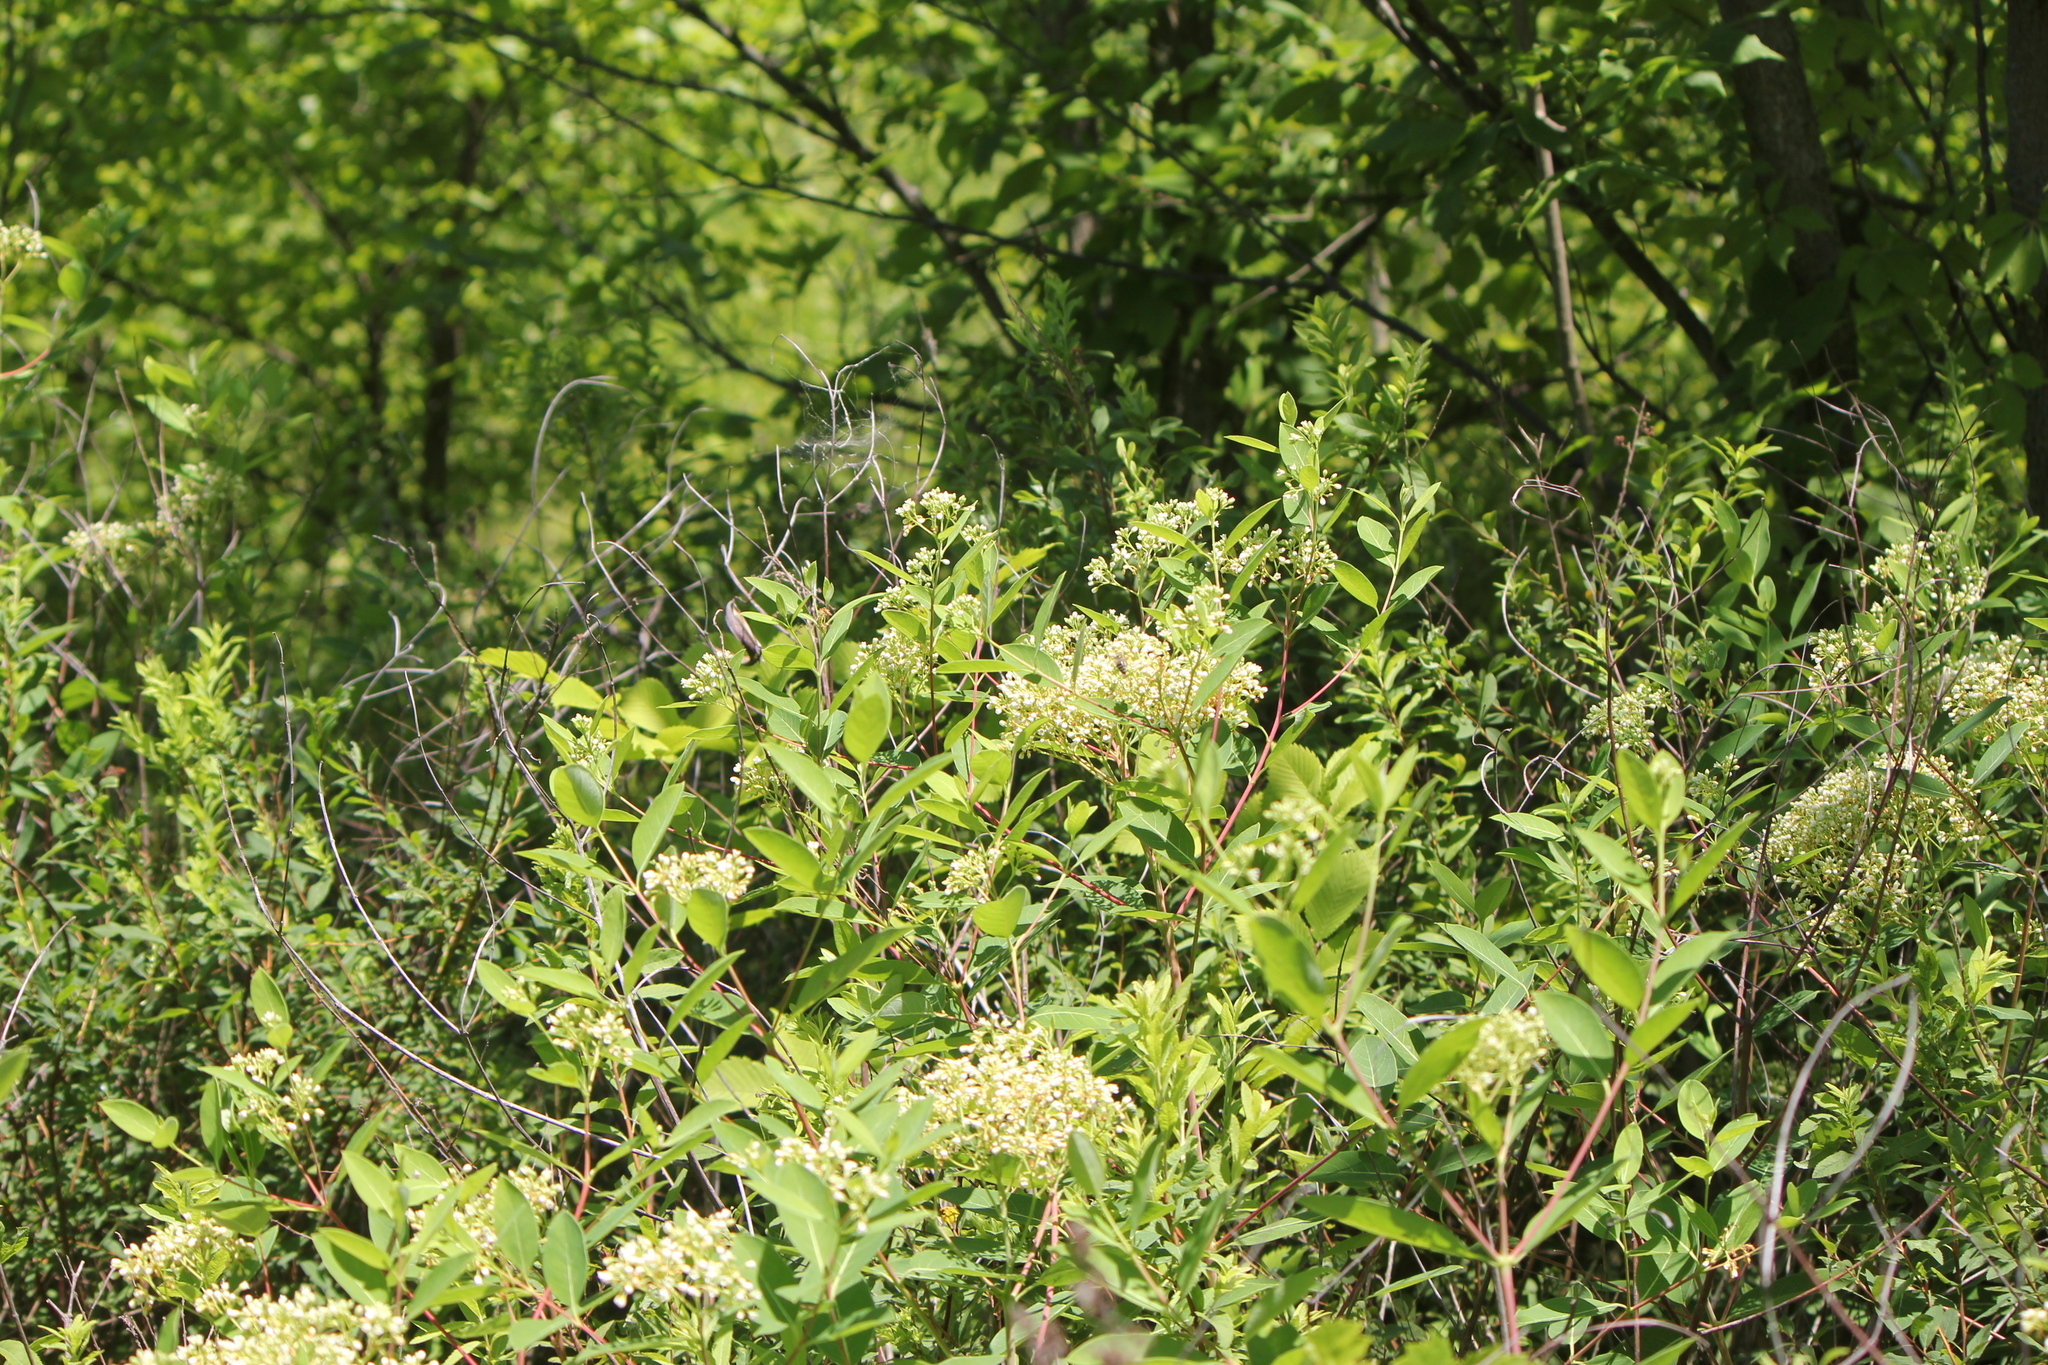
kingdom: Plantae
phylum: Tracheophyta
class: Magnoliopsida
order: Gentianales
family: Apocynaceae
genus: Apocynum
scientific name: Apocynum cannabinum
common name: Hemp dogbane
